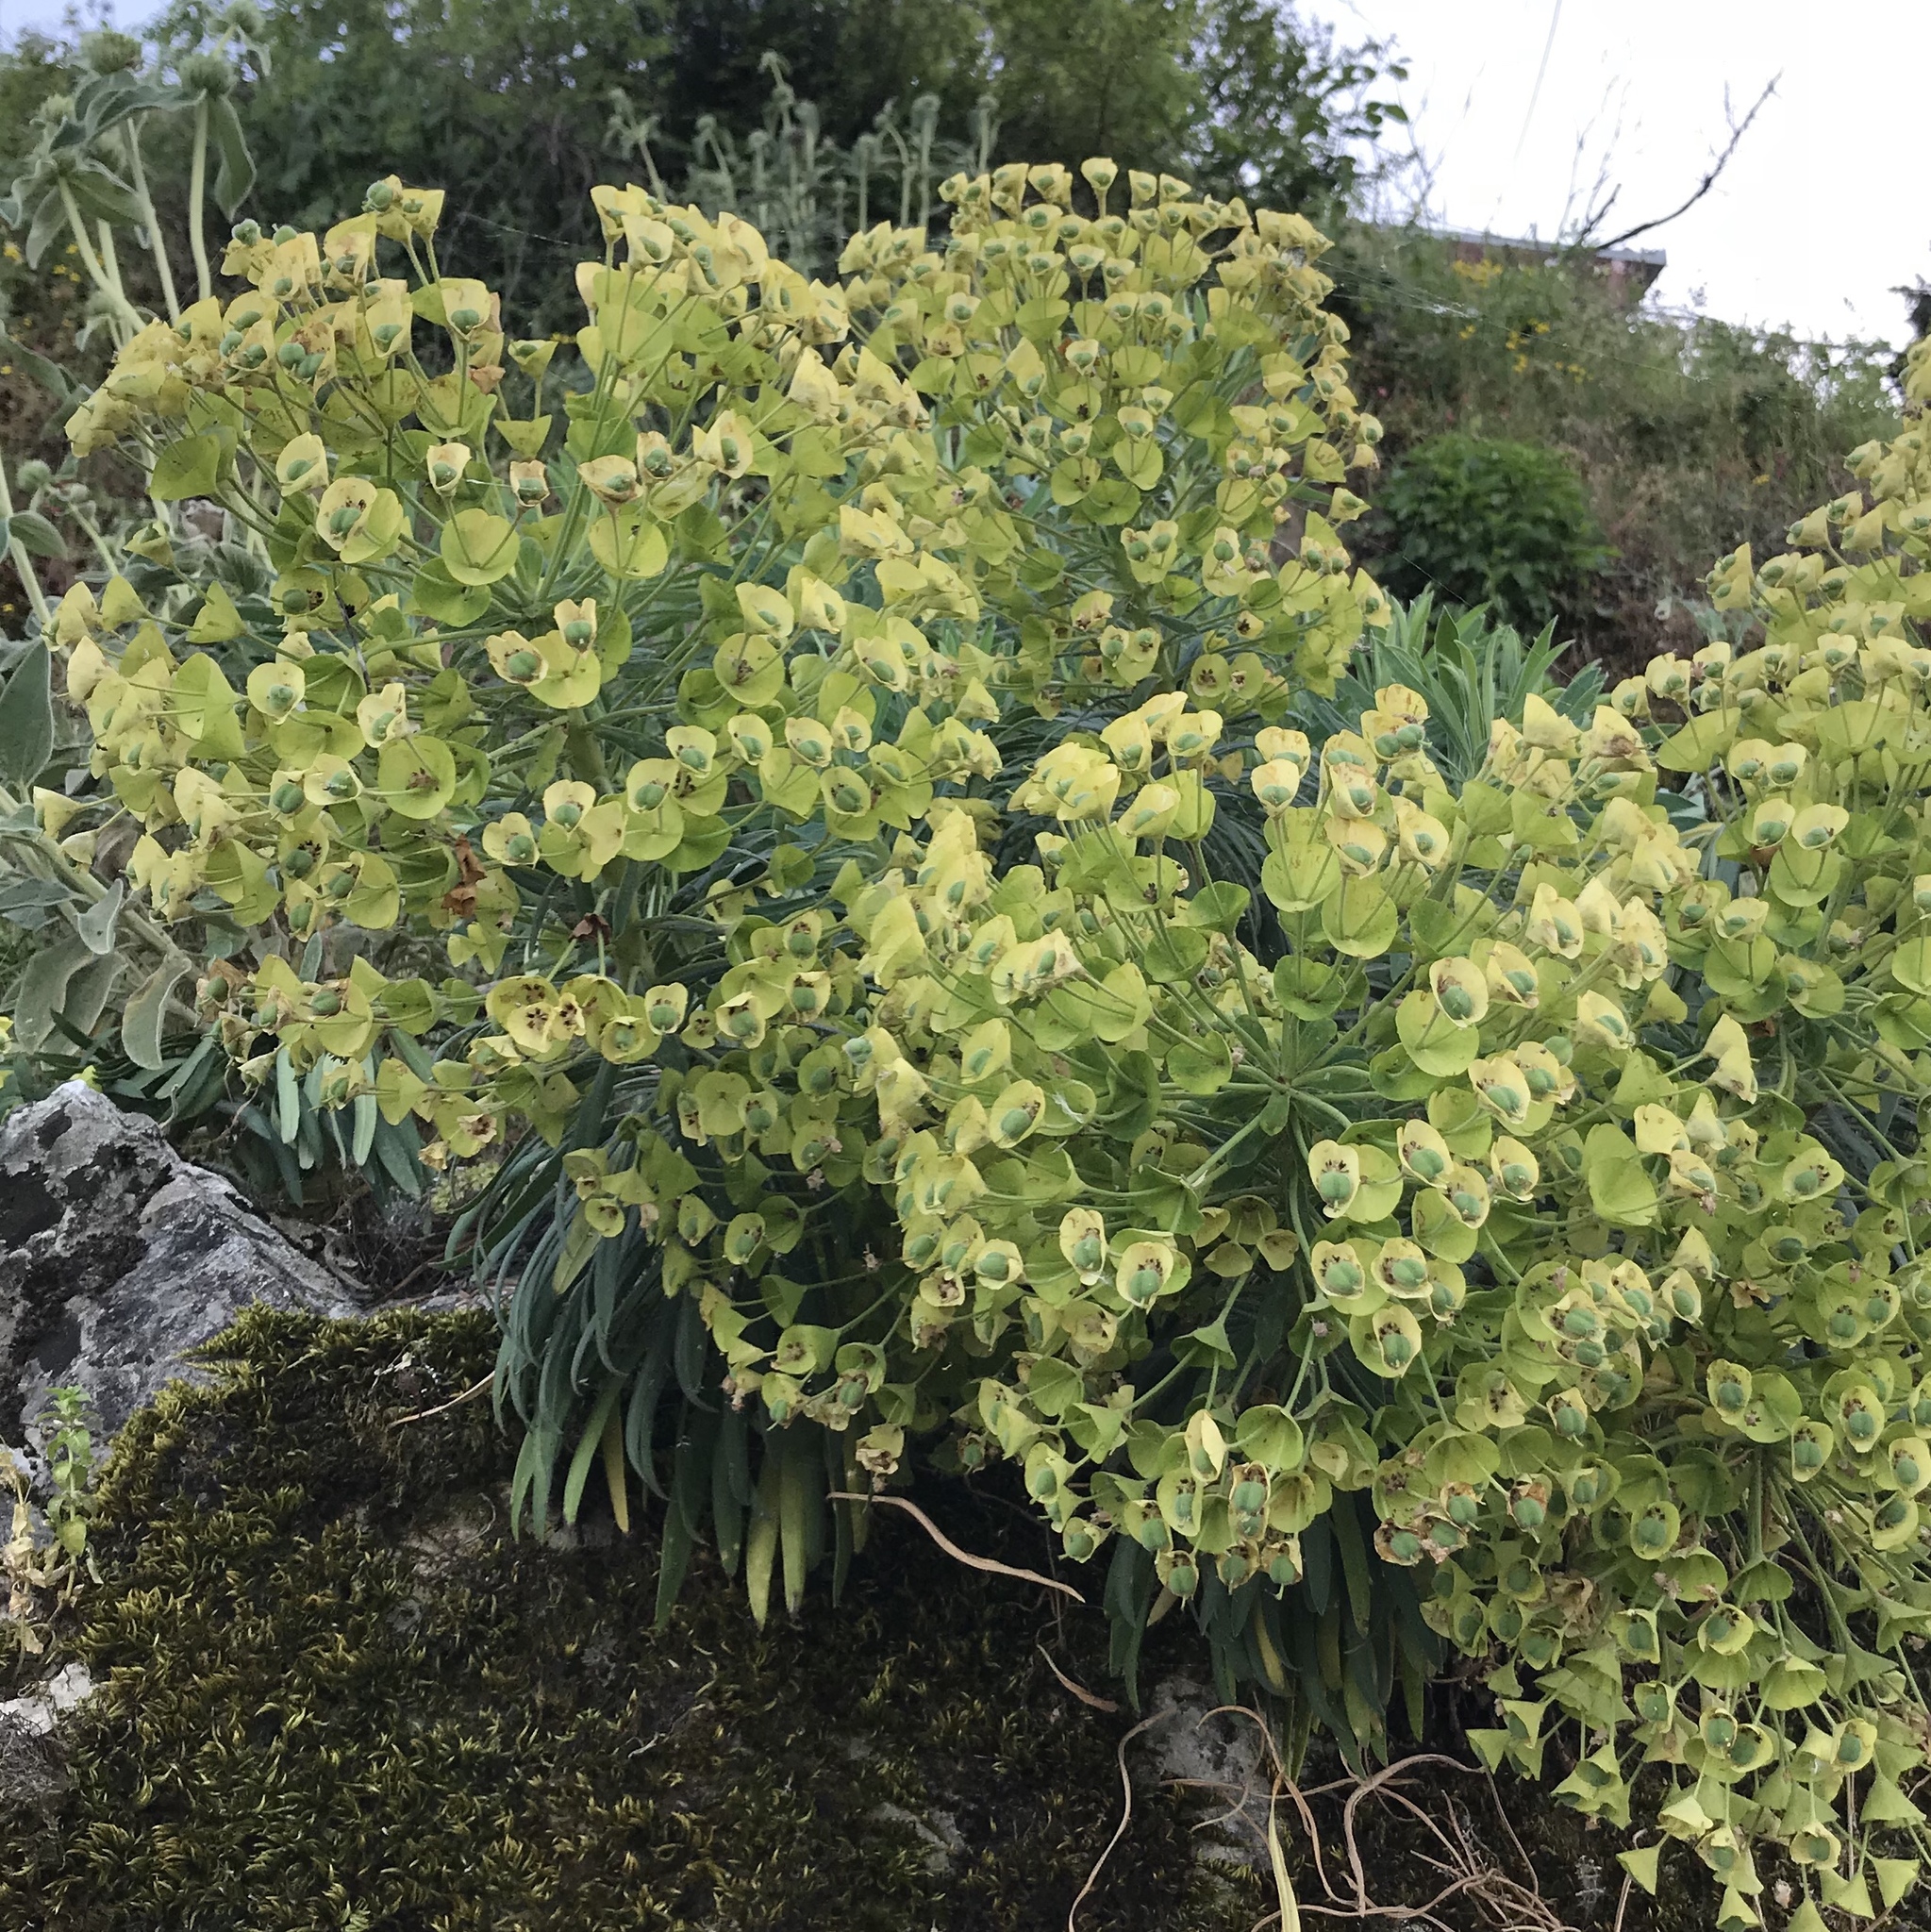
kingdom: Plantae
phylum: Tracheophyta
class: Magnoliopsida
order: Malpighiales
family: Euphorbiaceae
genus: Euphorbia
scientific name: Euphorbia characias
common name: Mediterranean spurge
